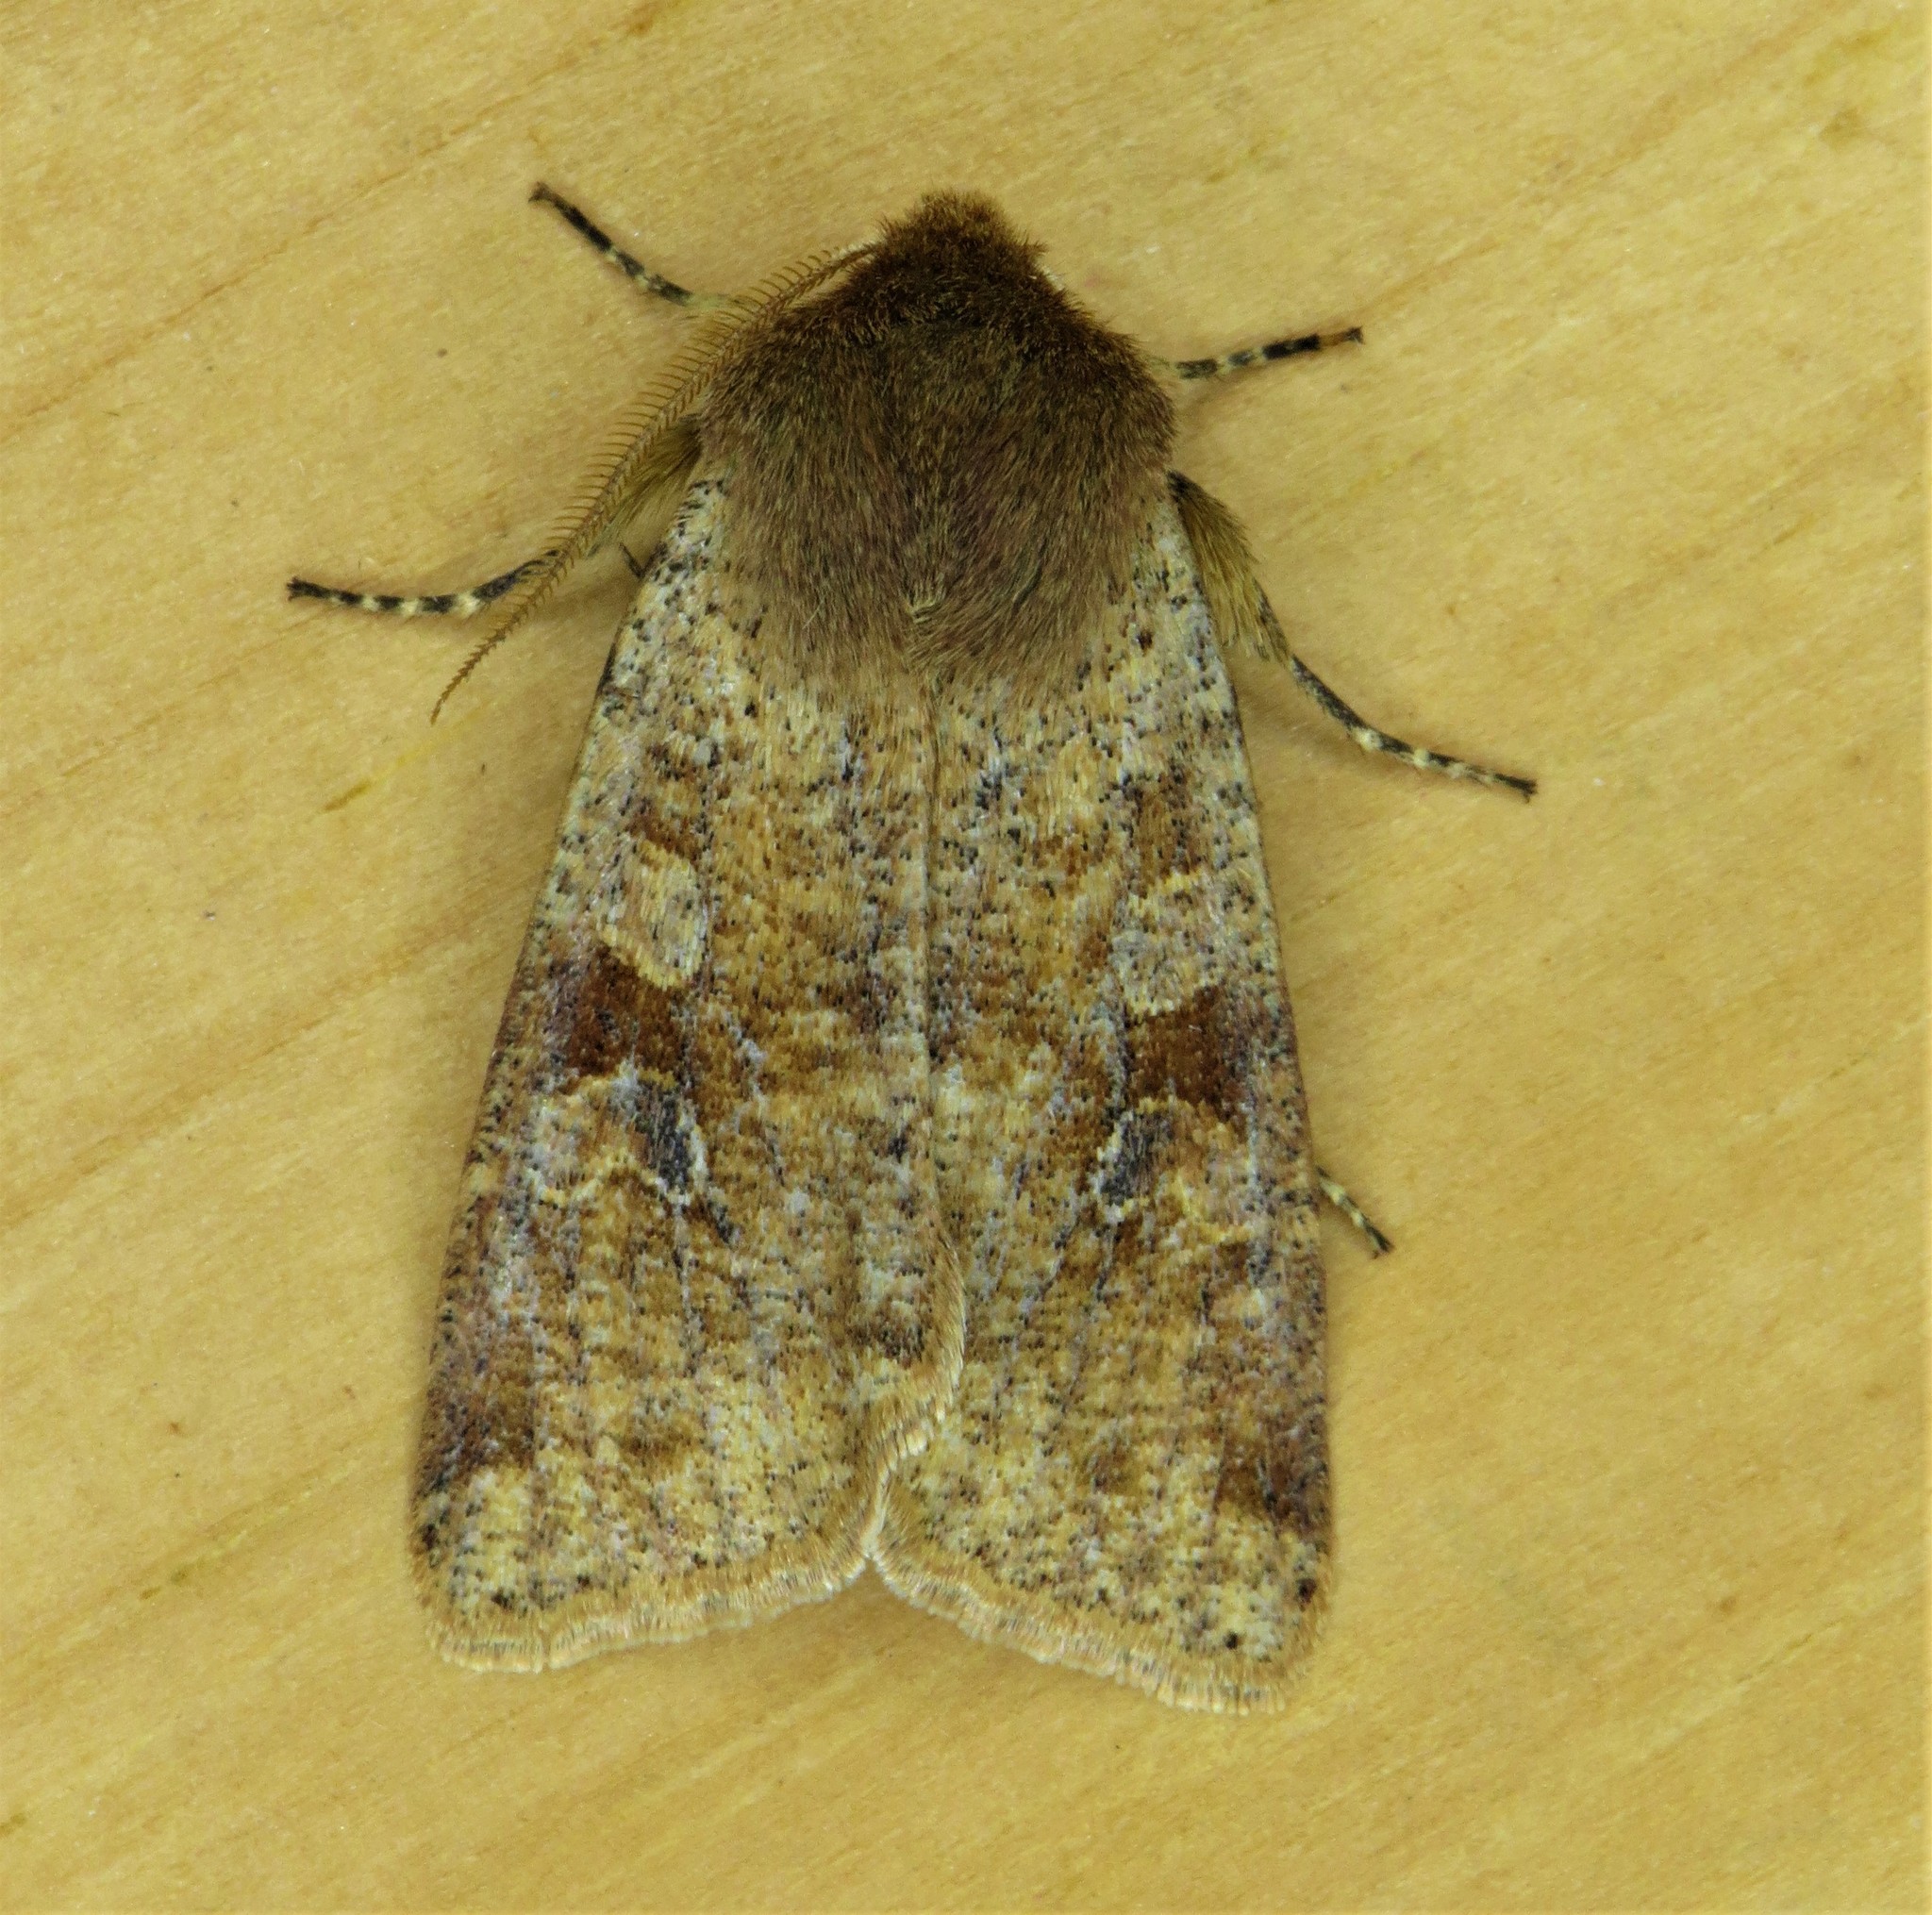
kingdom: Animalia
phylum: Arthropoda
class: Insecta
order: Lepidoptera
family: Noctuidae
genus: Orthosia
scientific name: Orthosia rubescens
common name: Ruby quaker
